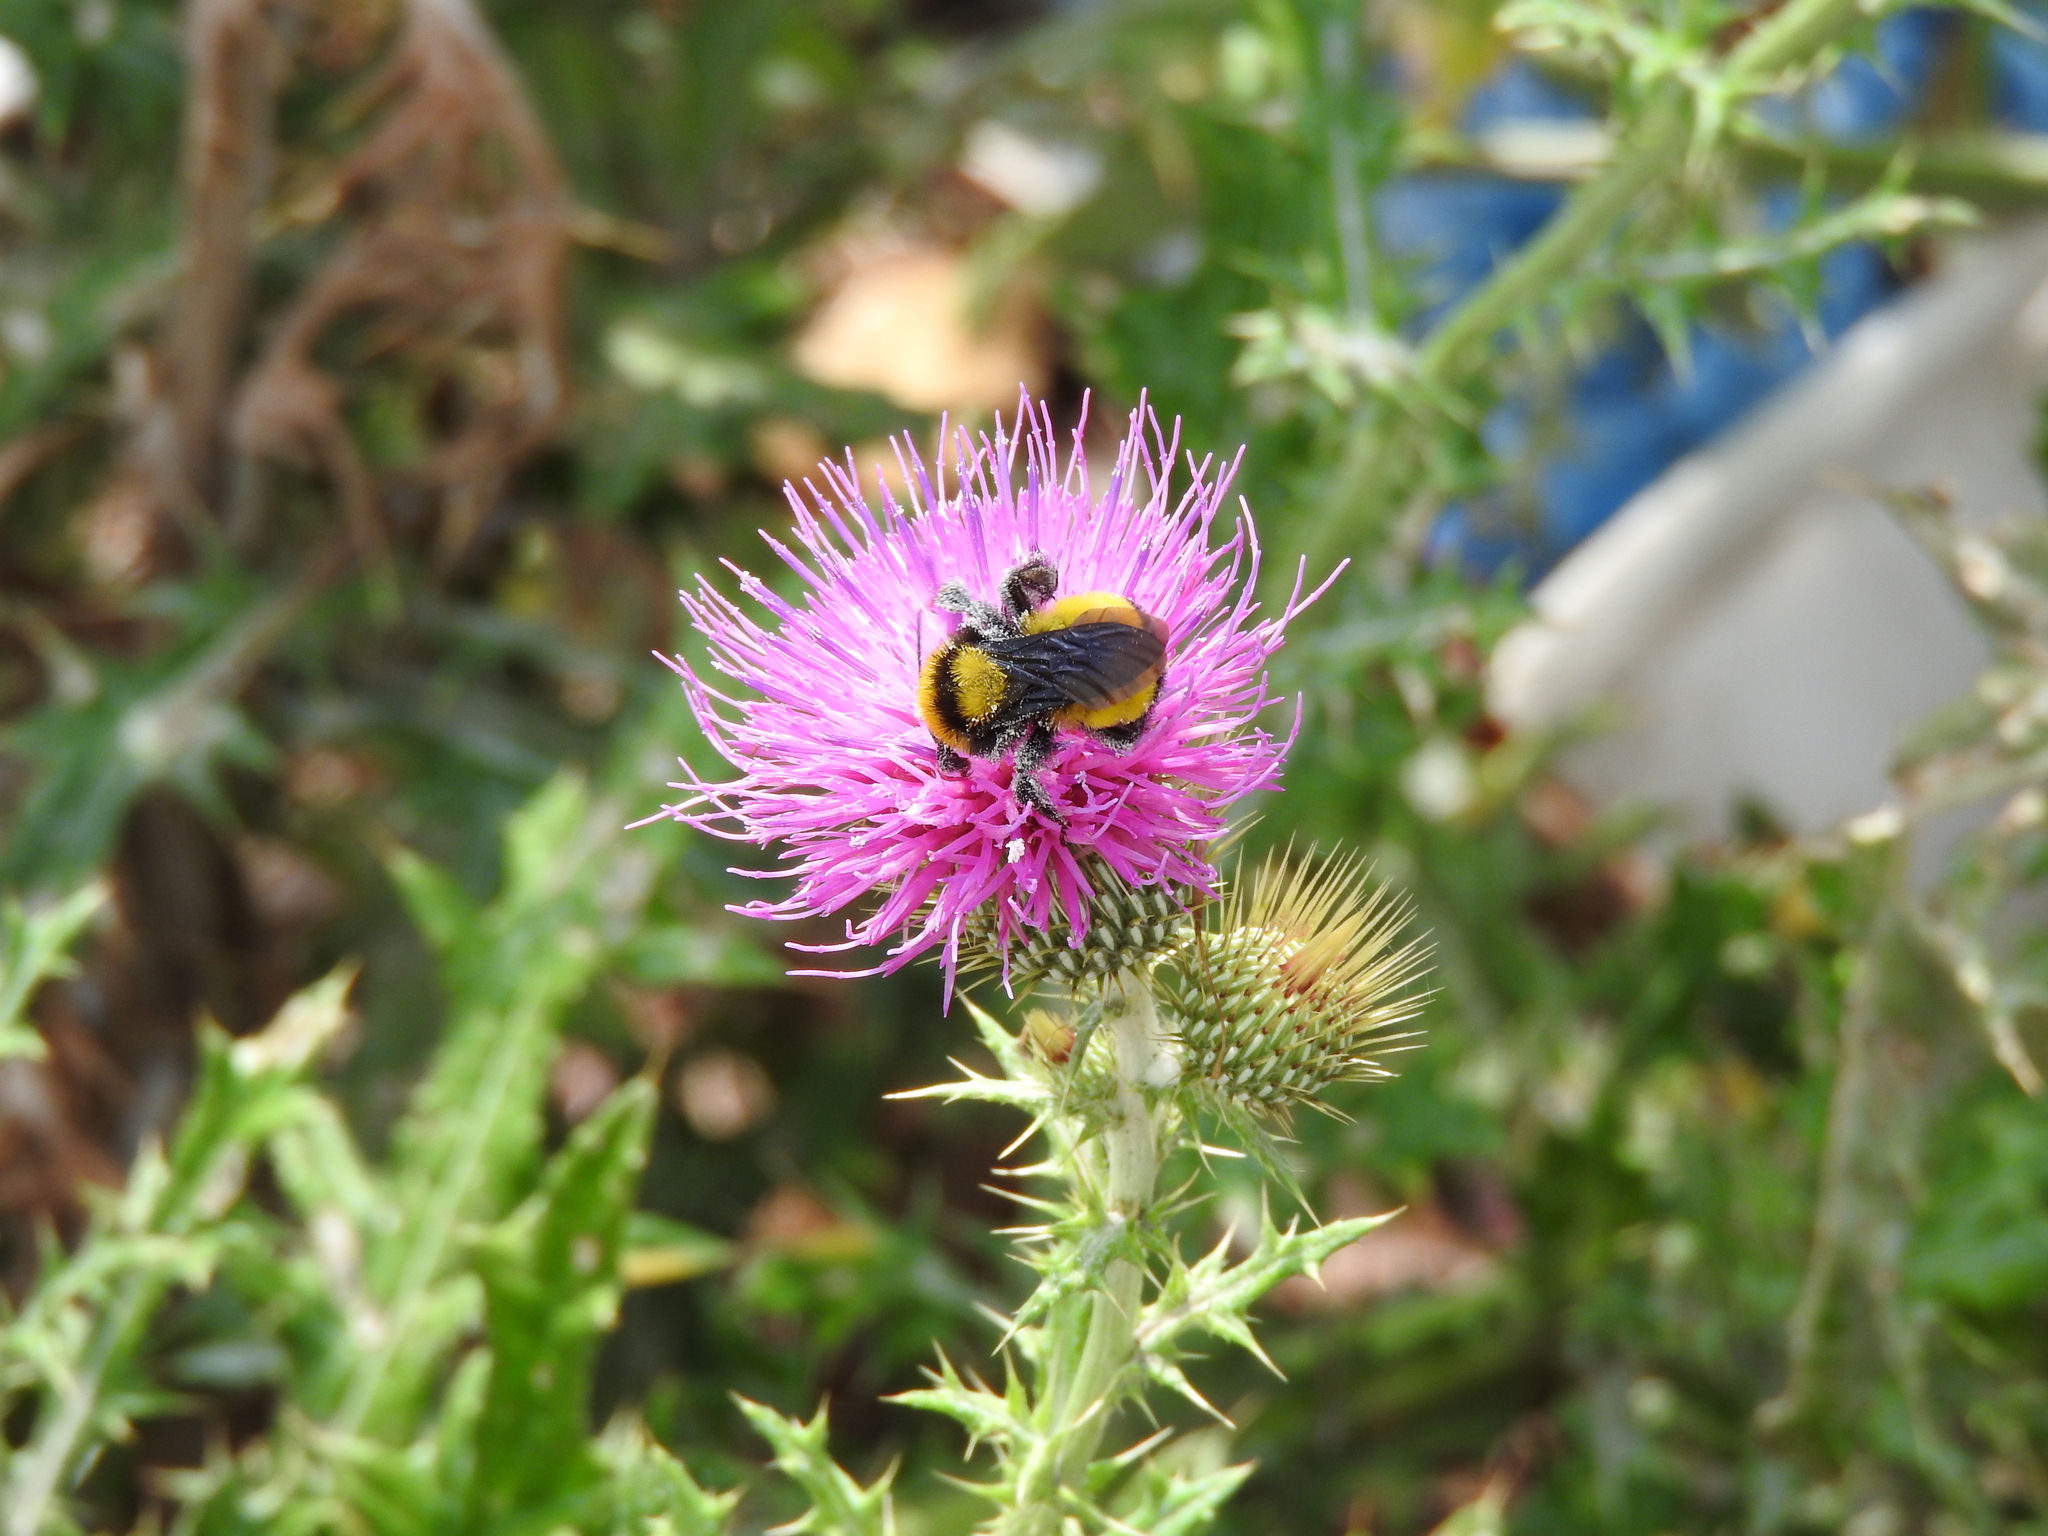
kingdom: Animalia
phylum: Arthropoda
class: Insecta
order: Hymenoptera
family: Apidae
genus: Bombus
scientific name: Bombus sonorus
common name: Sonoran bumble bee
